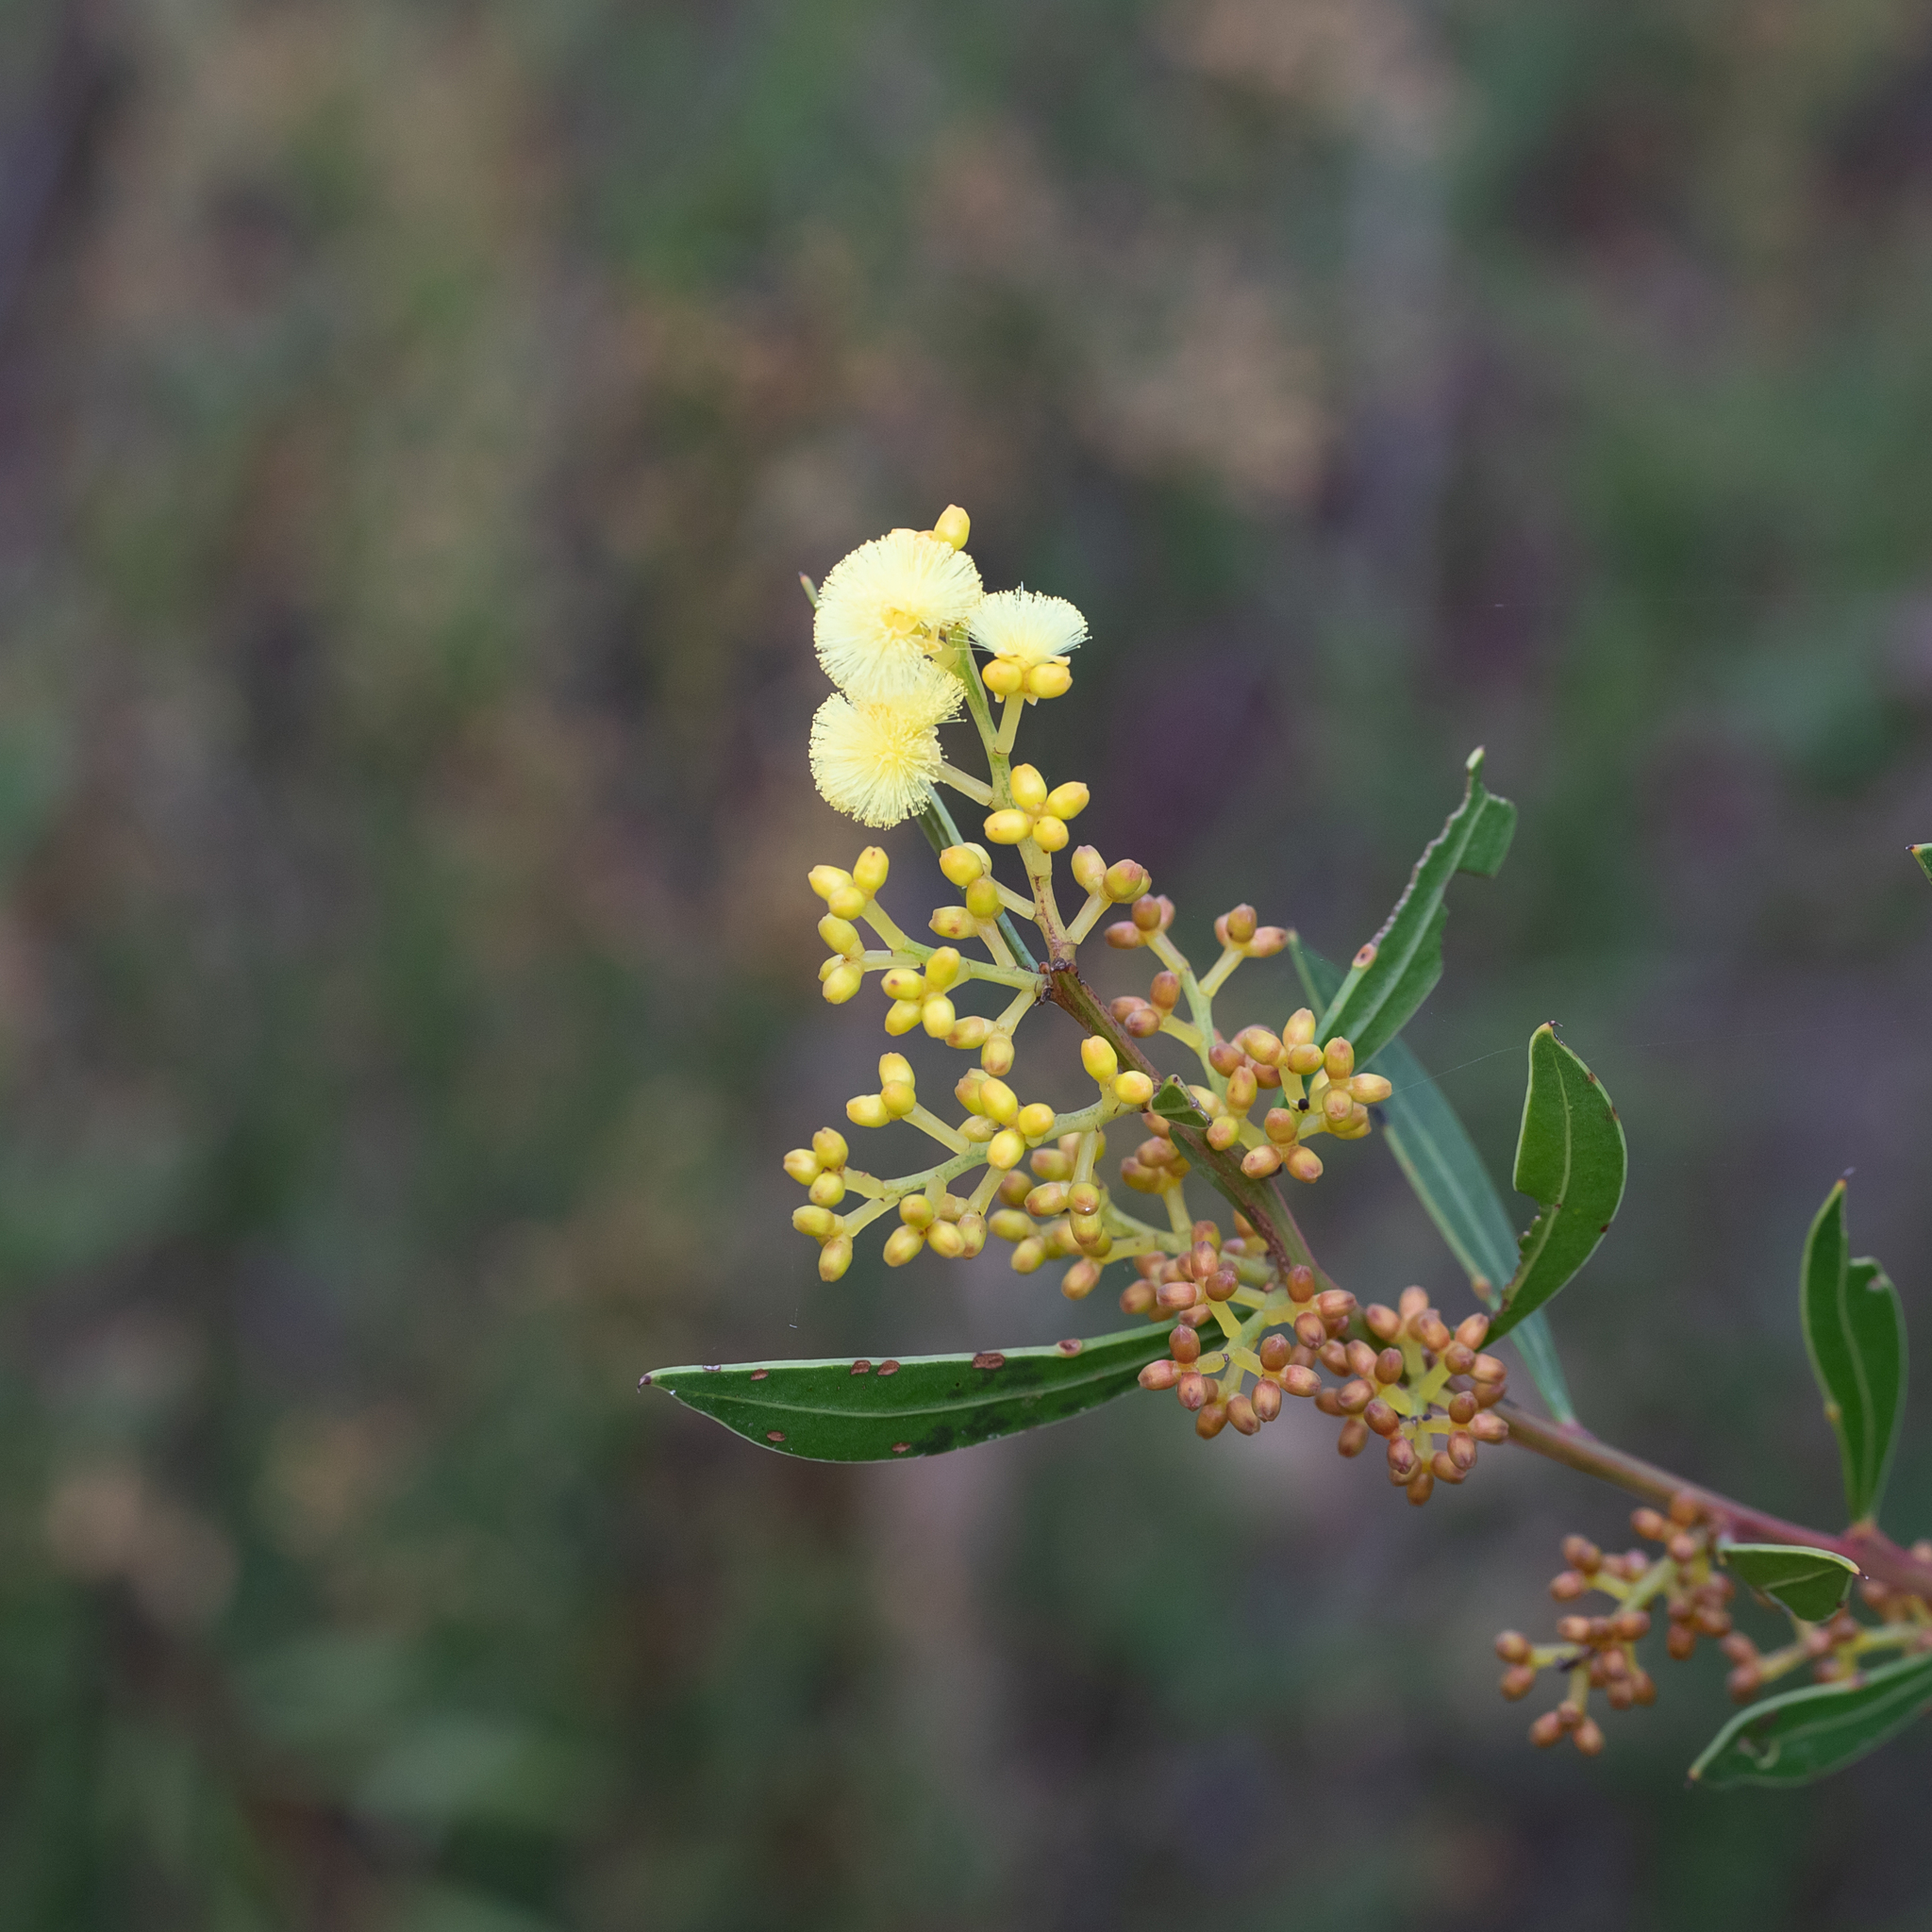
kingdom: Plantae
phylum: Tracheophyta
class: Magnoliopsida
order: Fabales
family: Fabaceae
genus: Acacia
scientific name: Acacia myrtifolia
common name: Myrtle wattle
